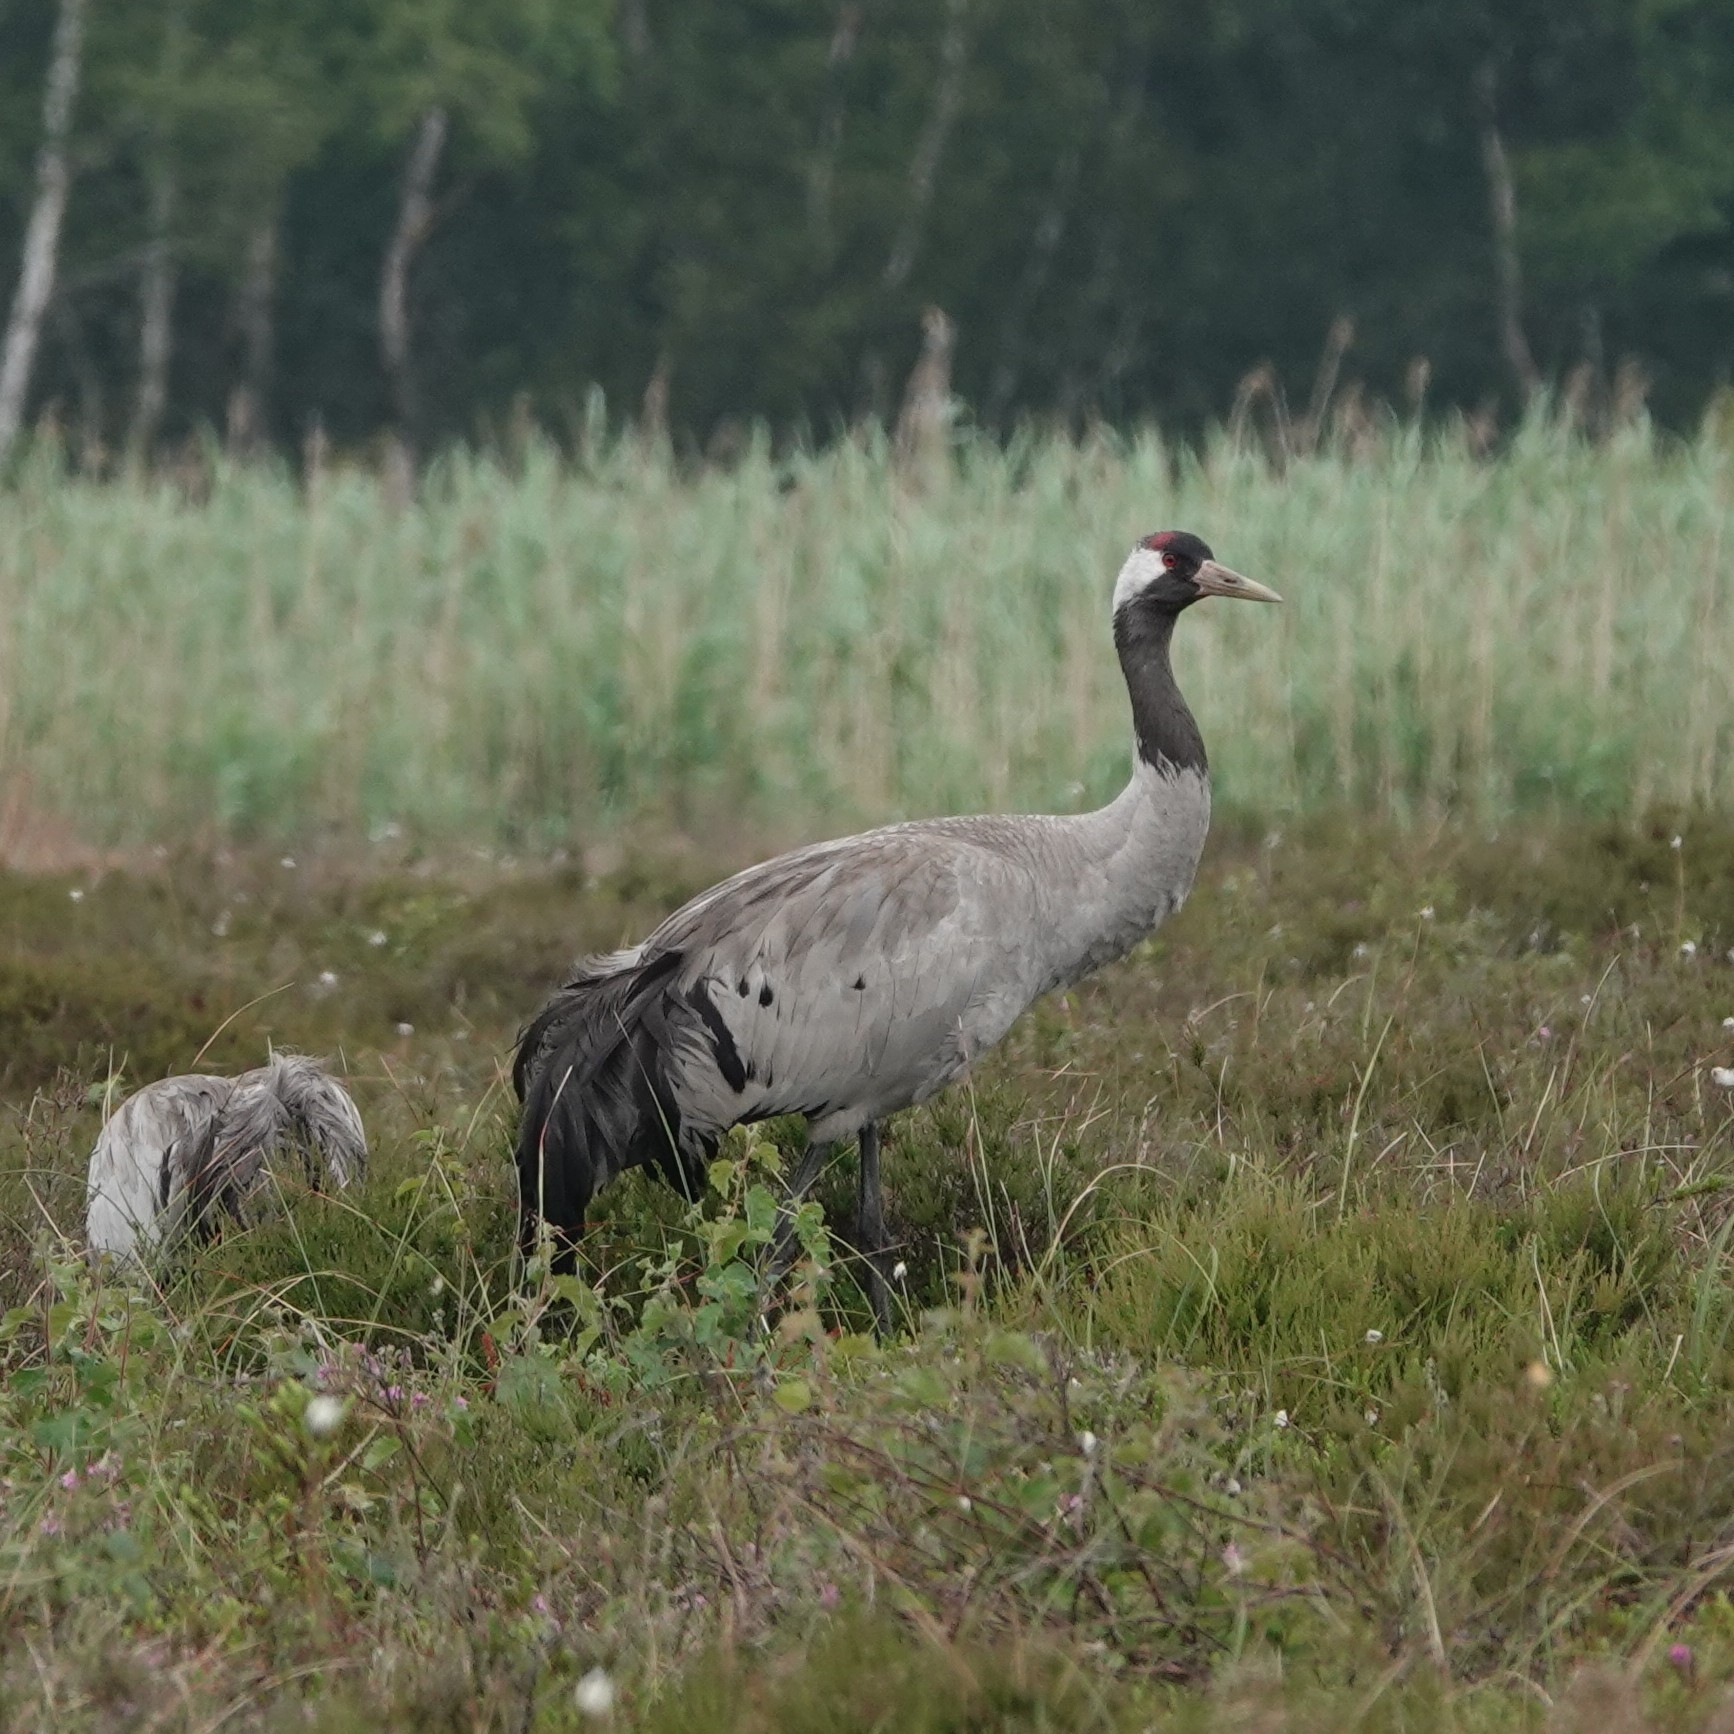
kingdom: Animalia
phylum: Chordata
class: Aves
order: Gruiformes
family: Gruidae
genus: Grus
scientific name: Grus grus
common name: Common crane
